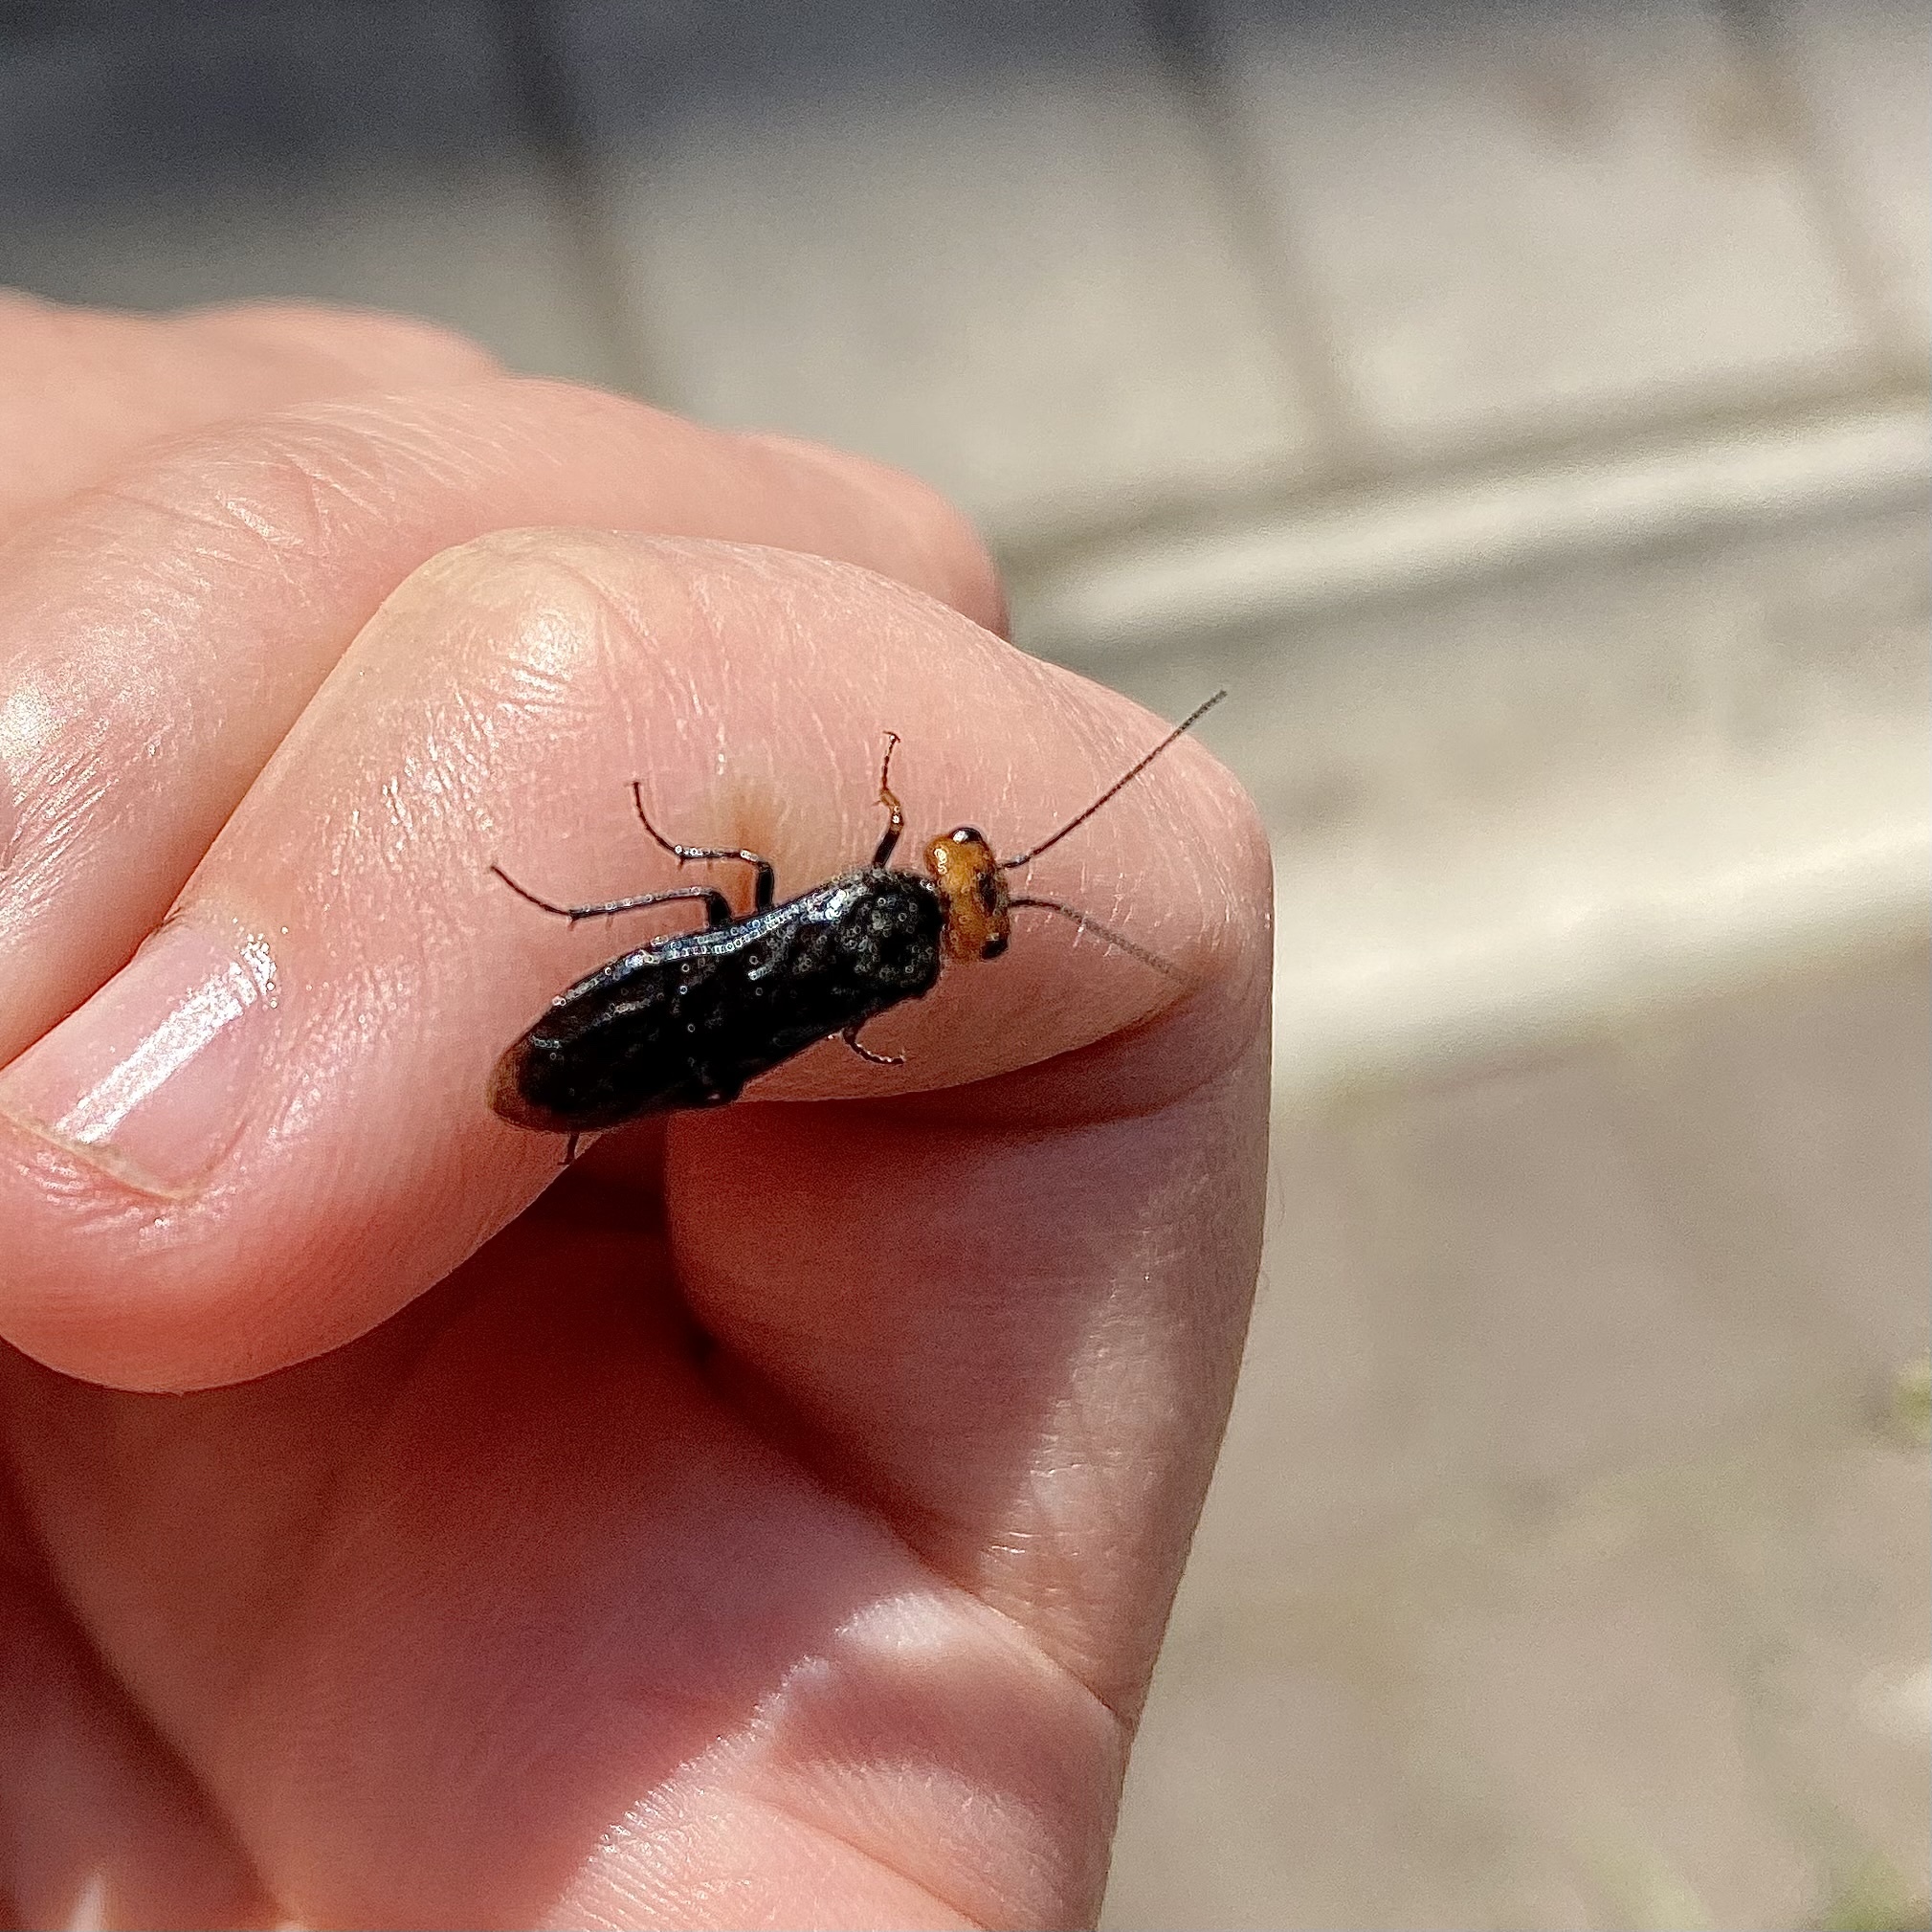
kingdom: Animalia
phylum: Arthropoda
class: Insecta
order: Hymenoptera
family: Pamphiliidae
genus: Acantholyda
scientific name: Acantholyda erythrocephala
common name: Pine false webworm
